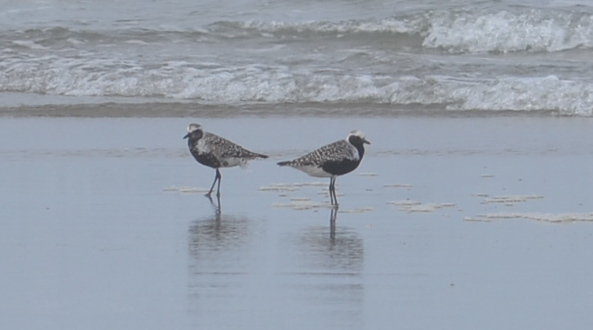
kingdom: Animalia
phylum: Chordata
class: Aves
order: Charadriiformes
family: Charadriidae
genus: Pluvialis
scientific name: Pluvialis squatarola
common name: Grey plover
